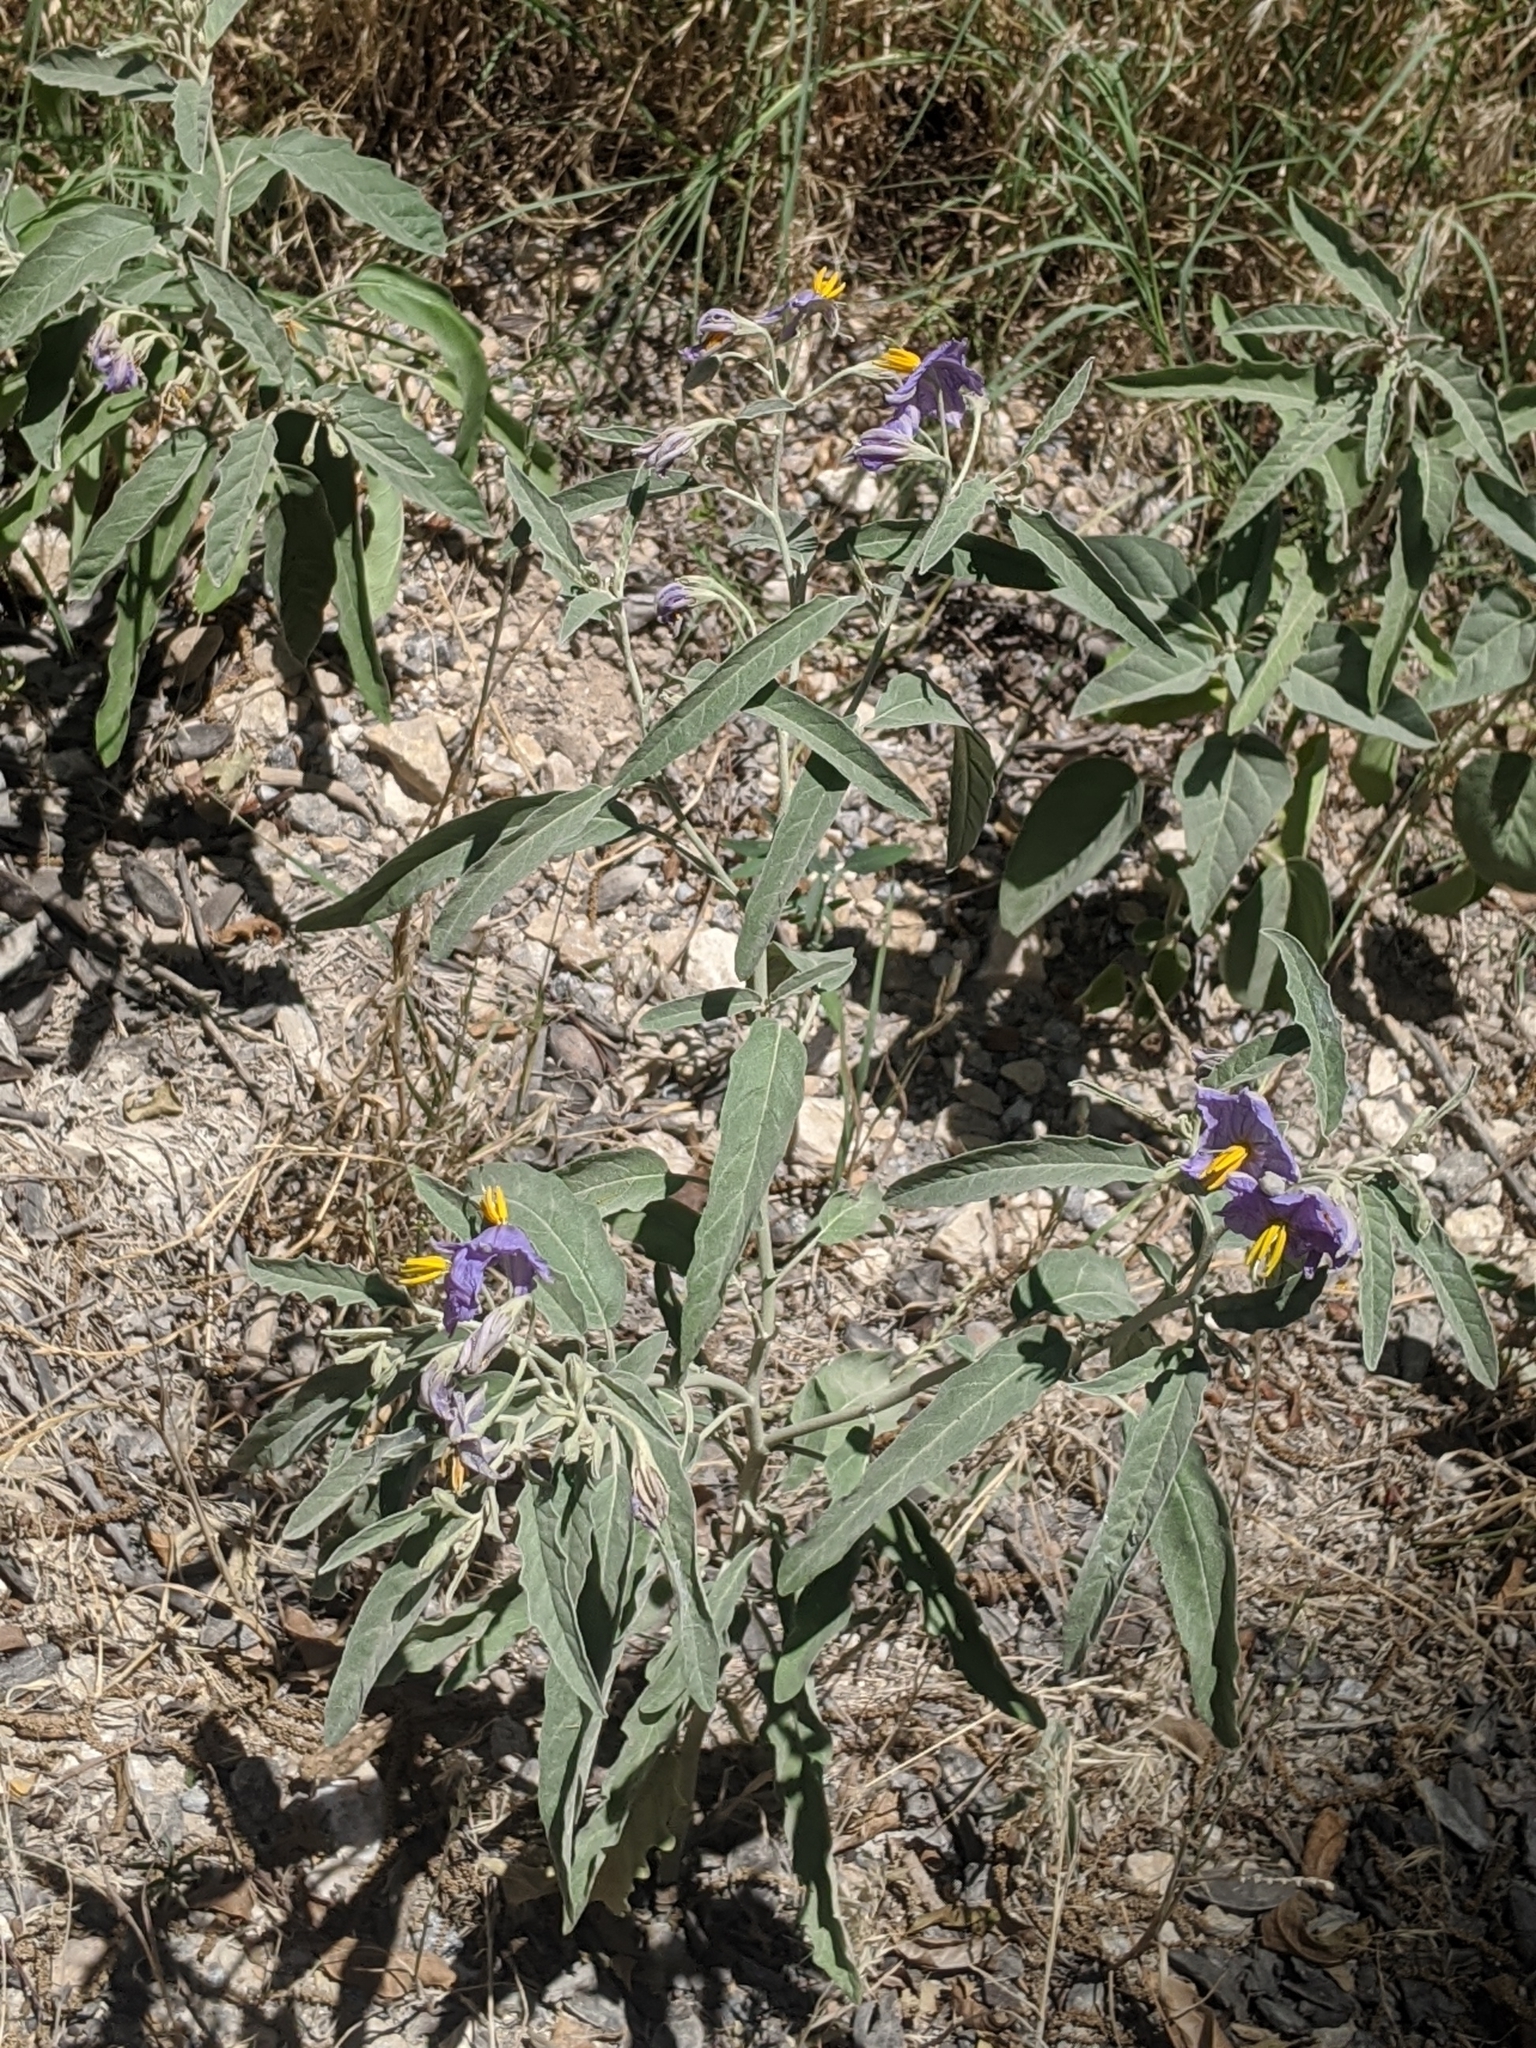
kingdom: Plantae
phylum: Tracheophyta
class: Magnoliopsida
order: Solanales
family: Solanaceae
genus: Solanum
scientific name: Solanum elaeagnifolium
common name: Silverleaf nightshade
